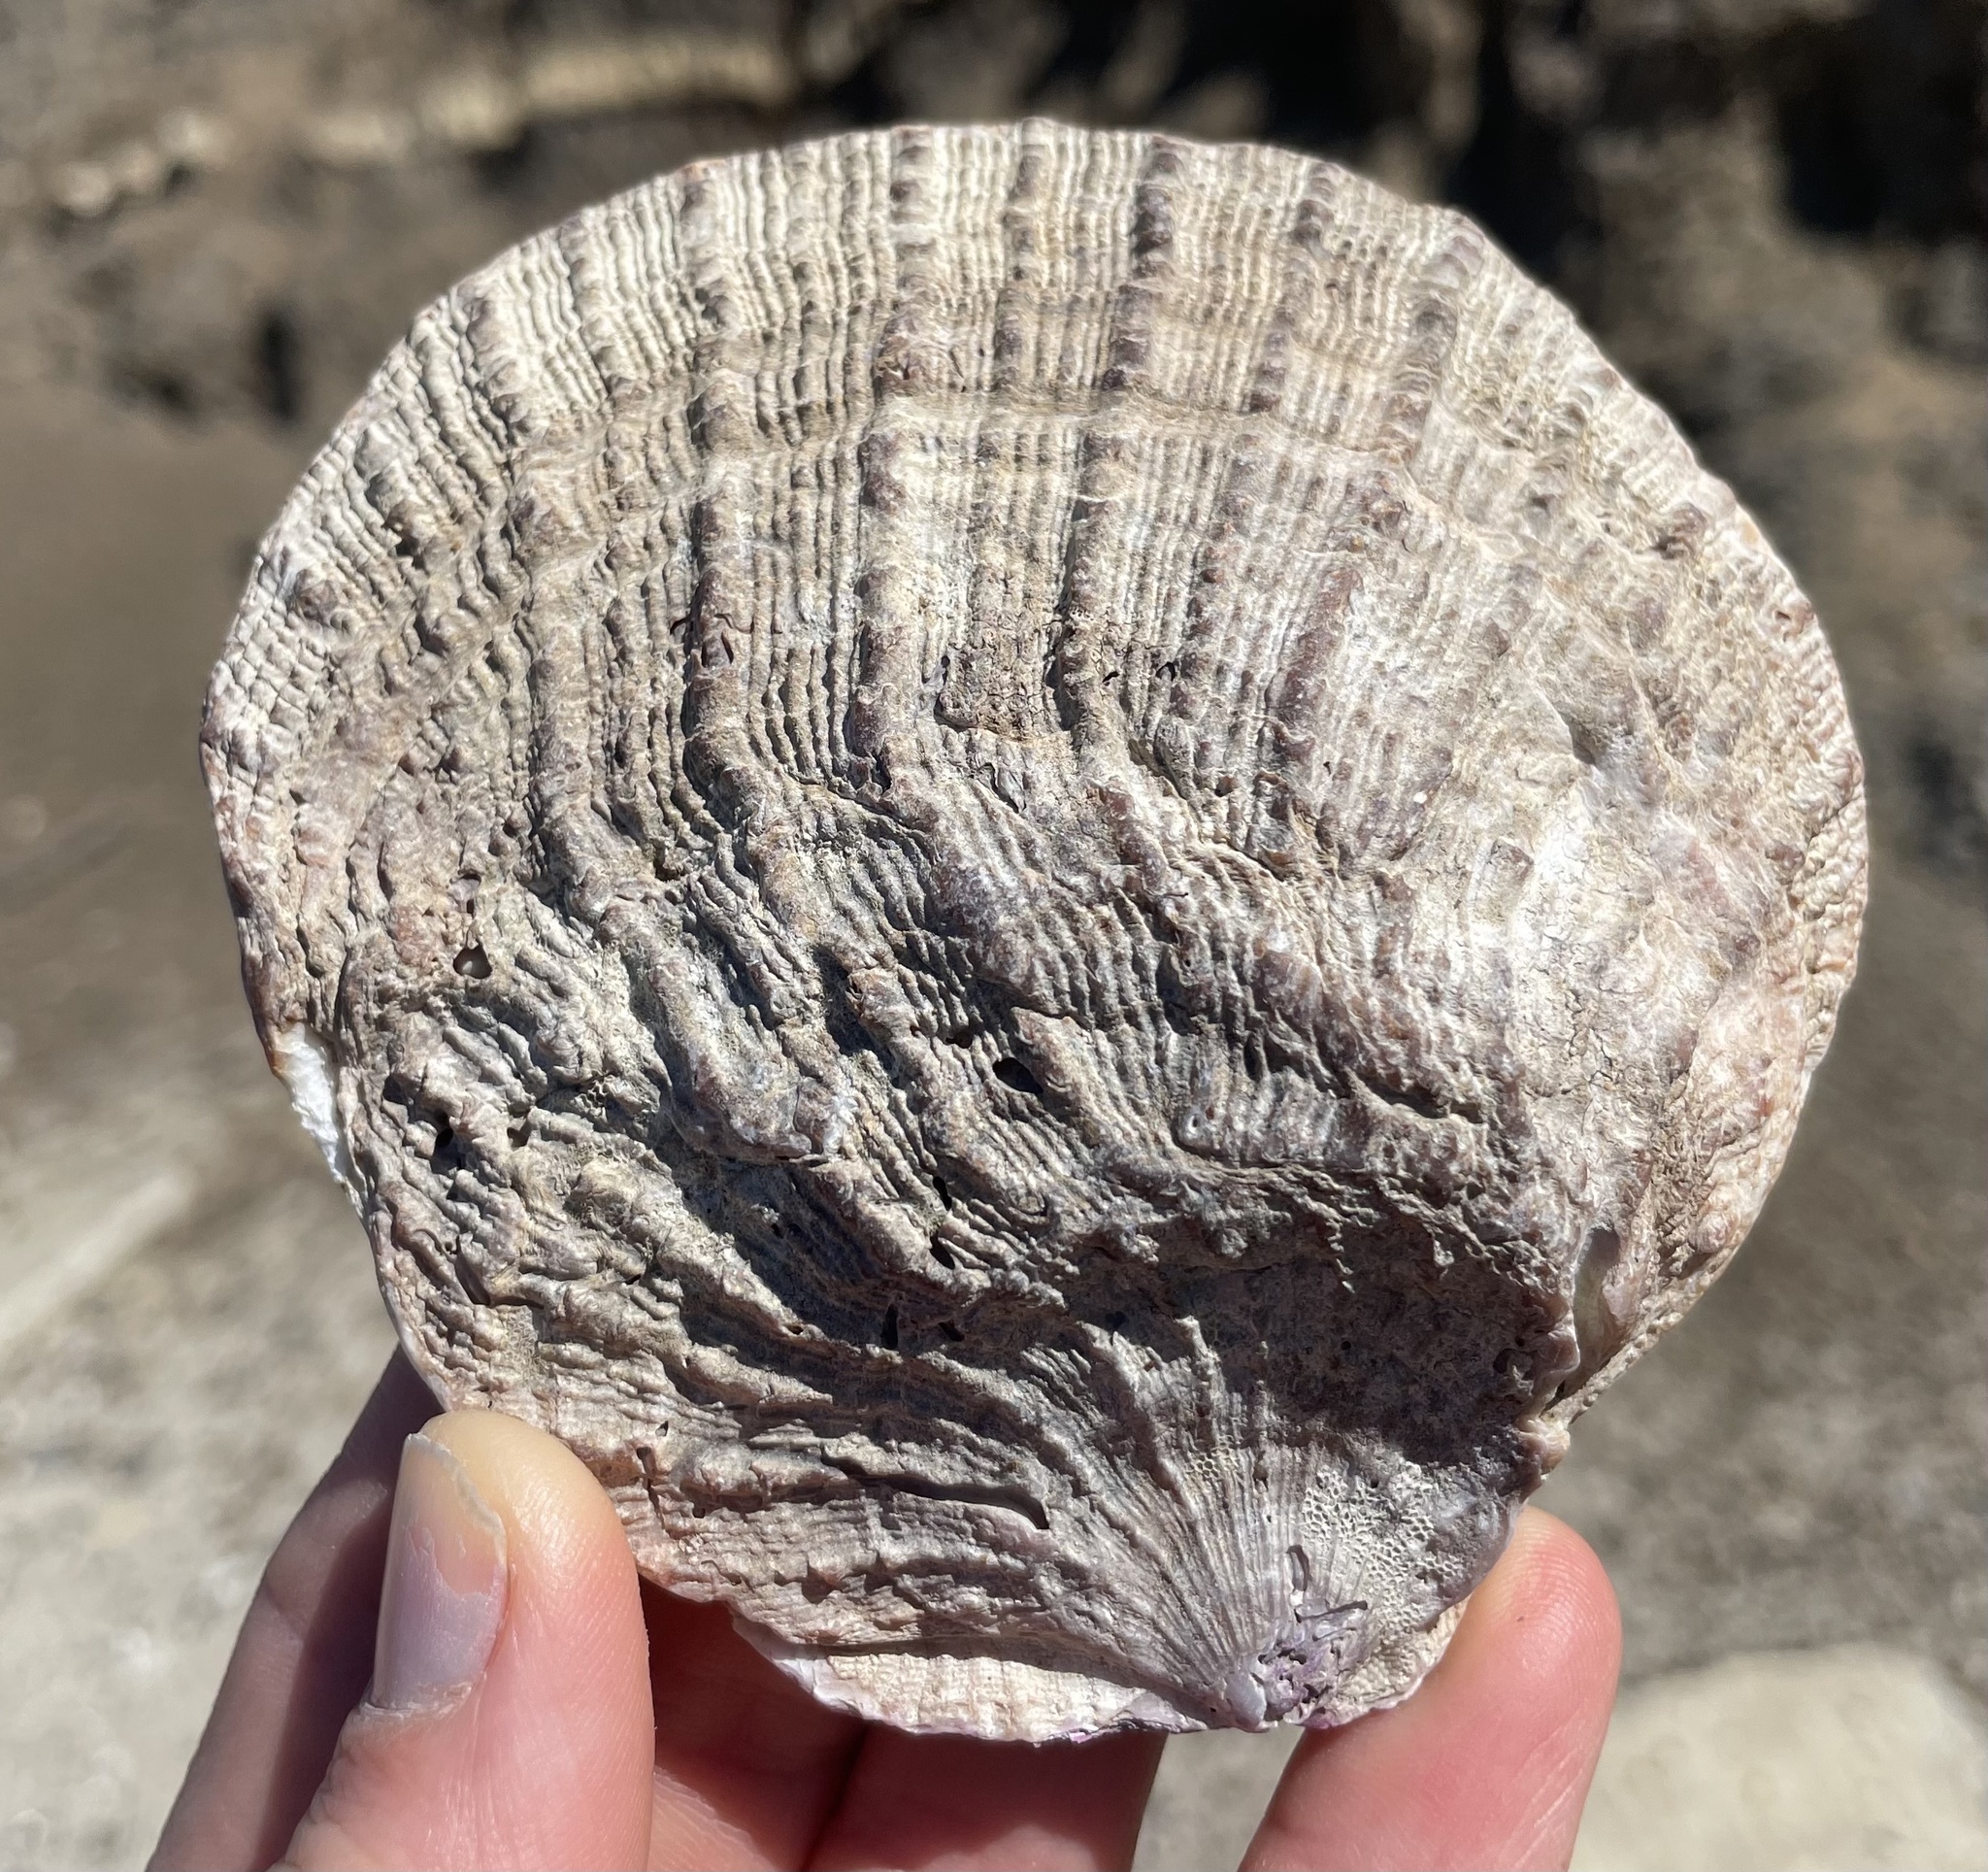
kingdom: Animalia
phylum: Mollusca
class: Bivalvia
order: Pectinida
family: Pectinidae
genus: Crassadoma
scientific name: Crassadoma gigantea
